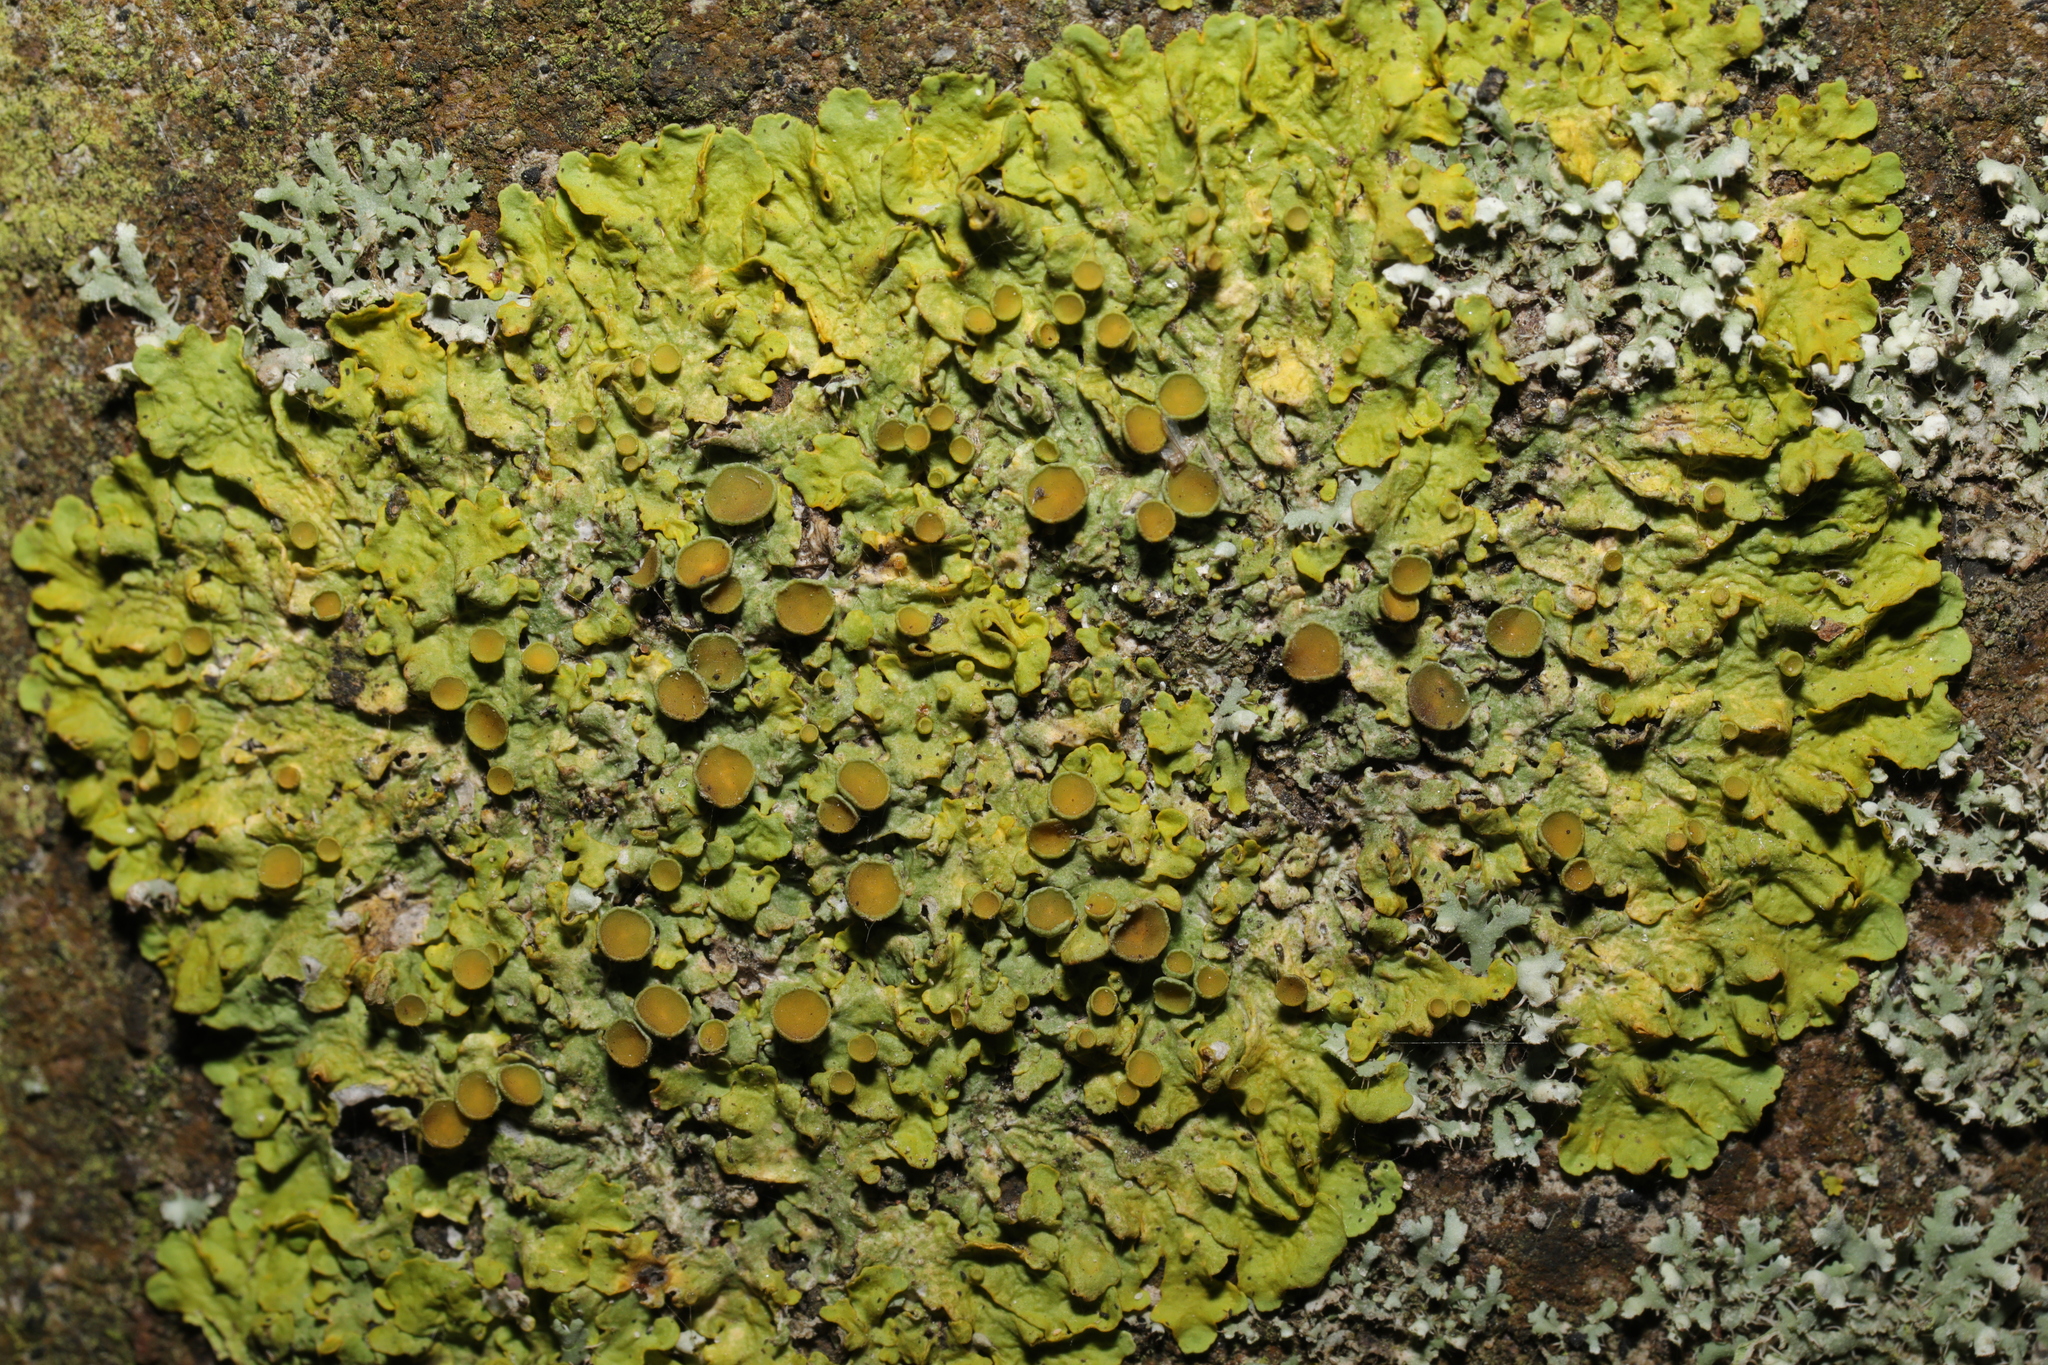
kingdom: Fungi
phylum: Ascomycota
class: Lecanoromycetes
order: Teloschistales
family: Teloschistaceae
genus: Xanthoria
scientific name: Xanthoria parietina
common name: Common orange lichen
